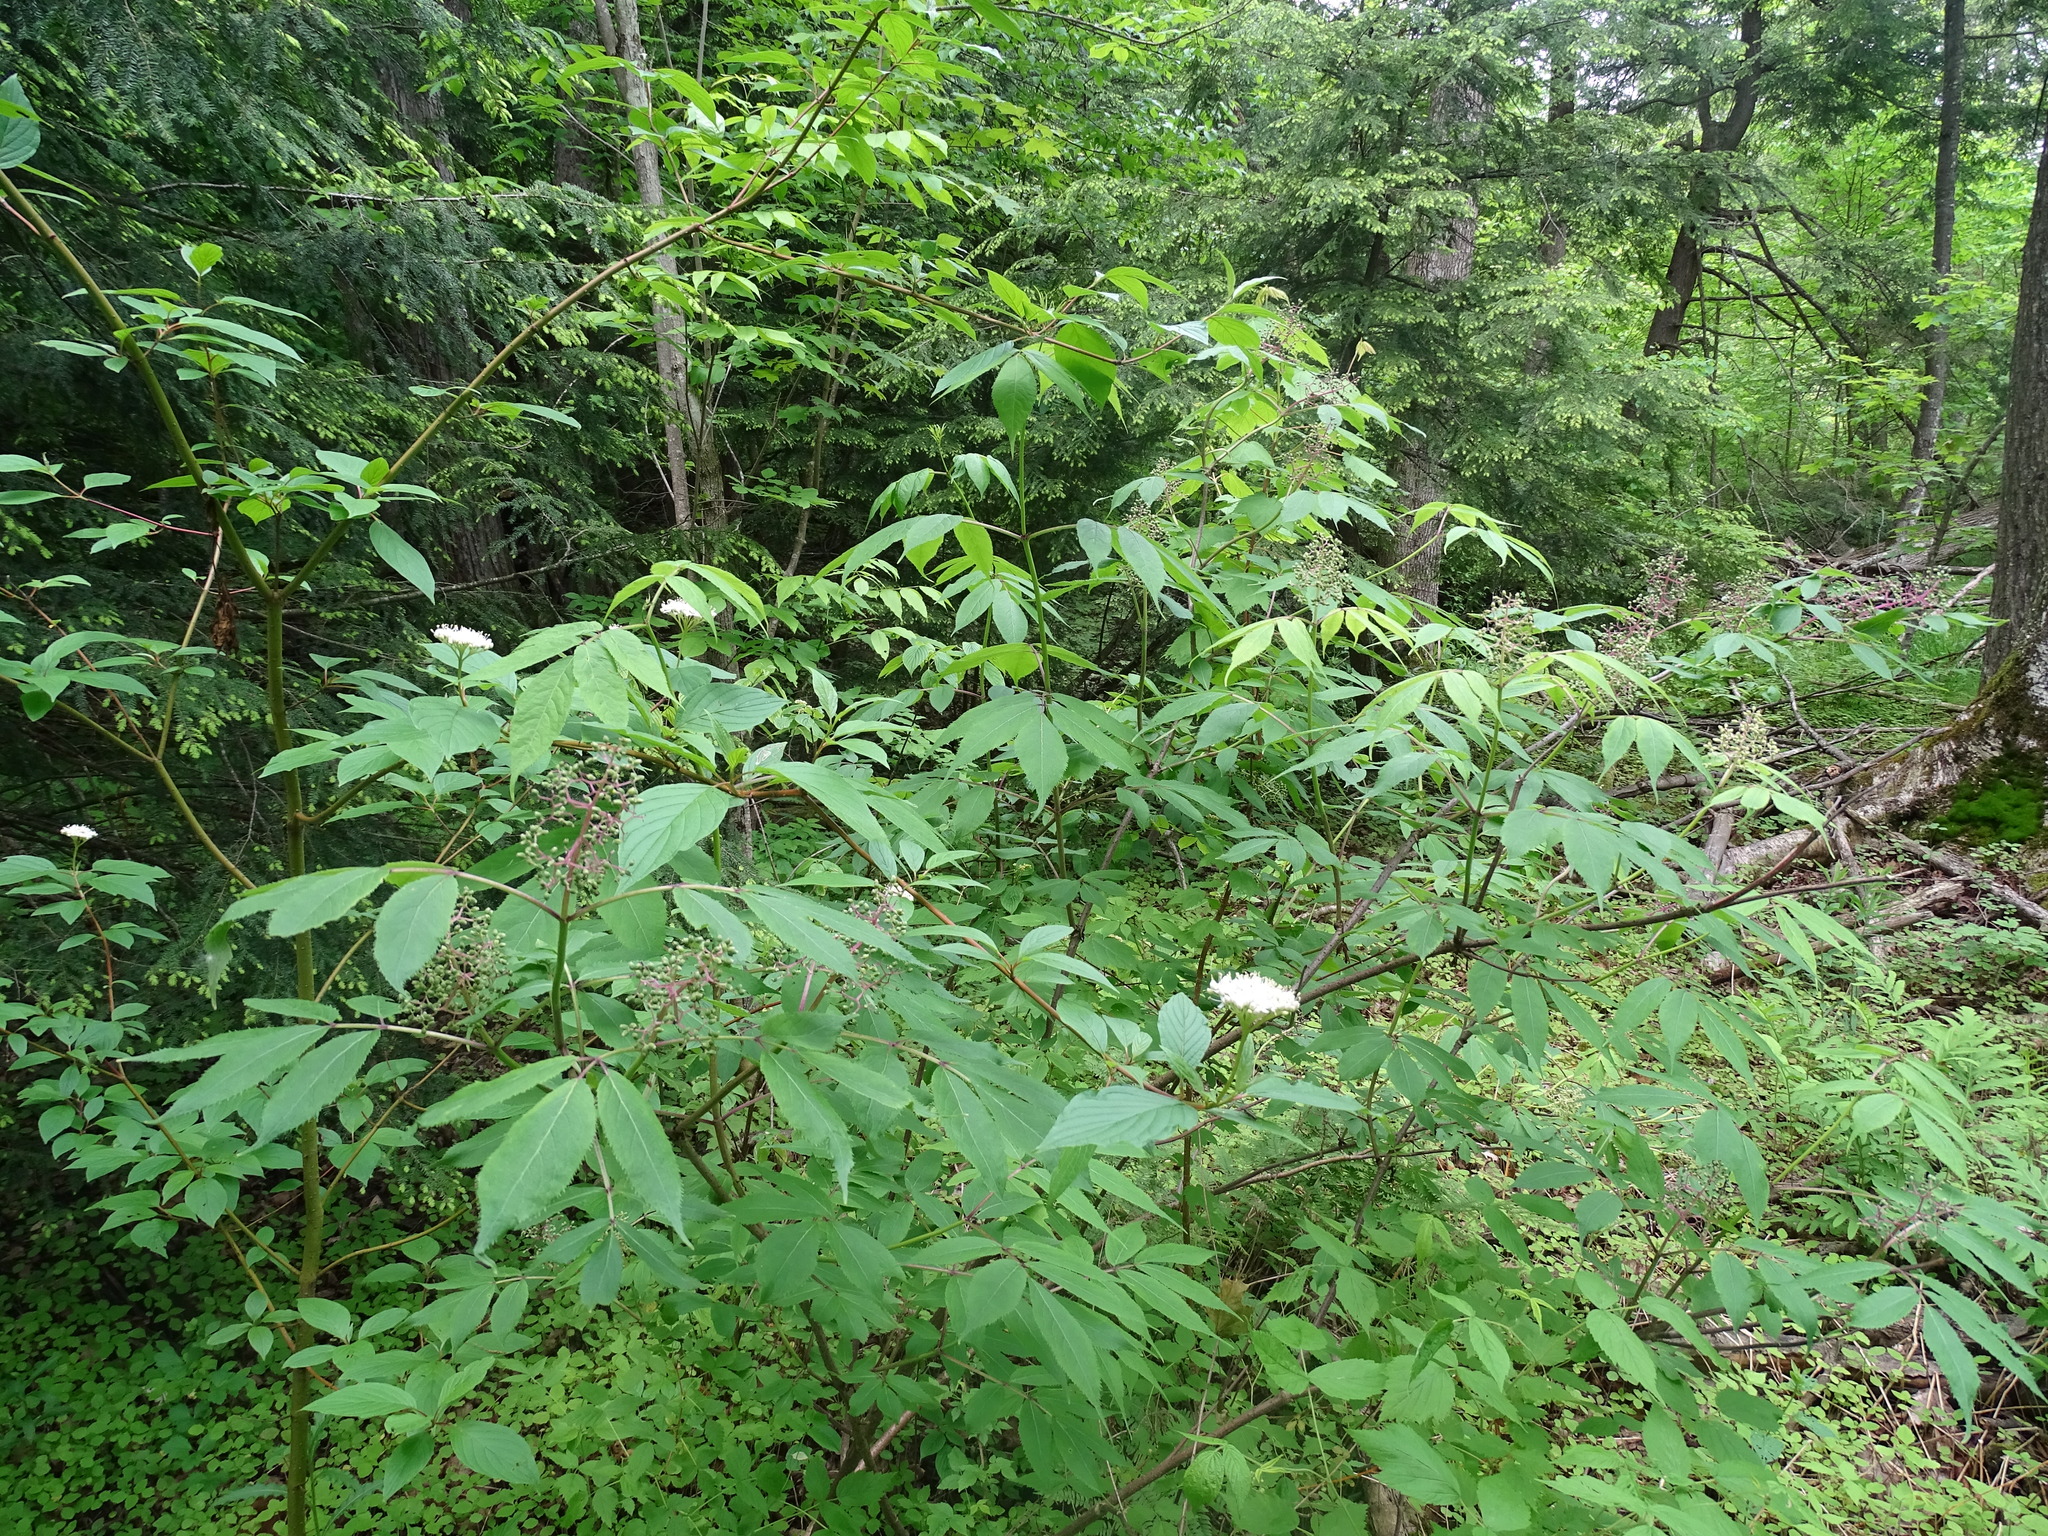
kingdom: Plantae
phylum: Tracheophyta
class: Magnoliopsida
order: Dipsacales
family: Viburnaceae
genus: Sambucus
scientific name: Sambucus racemosa
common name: Red-berried elder
